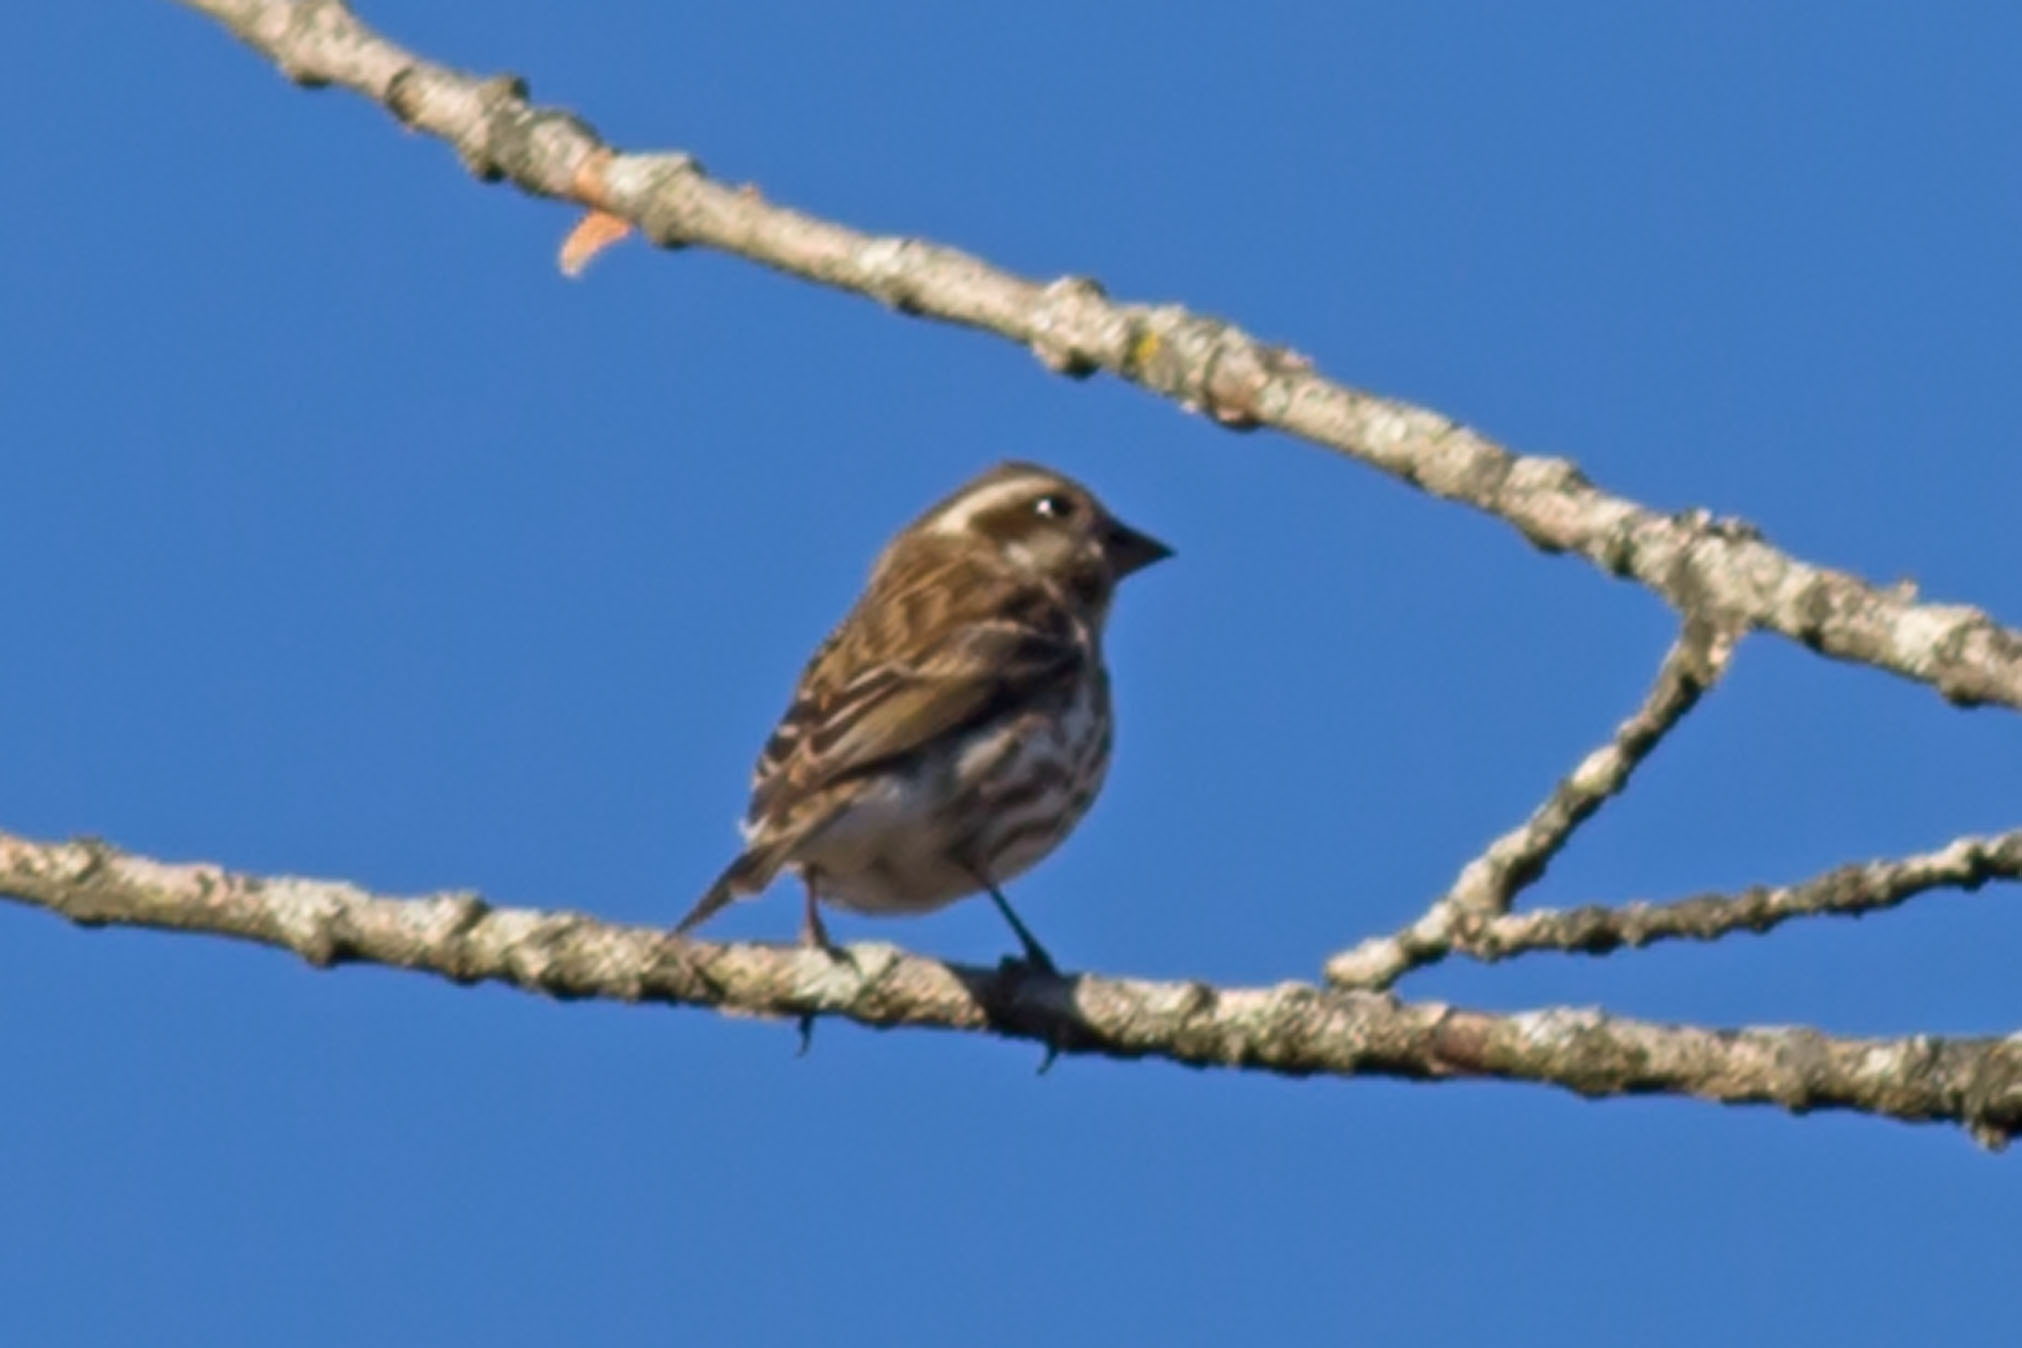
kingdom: Animalia
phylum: Chordata
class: Aves
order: Passeriformes
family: Fringillidae
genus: Haemorhous
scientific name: Haemorhous purpureus
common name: Purple finch
